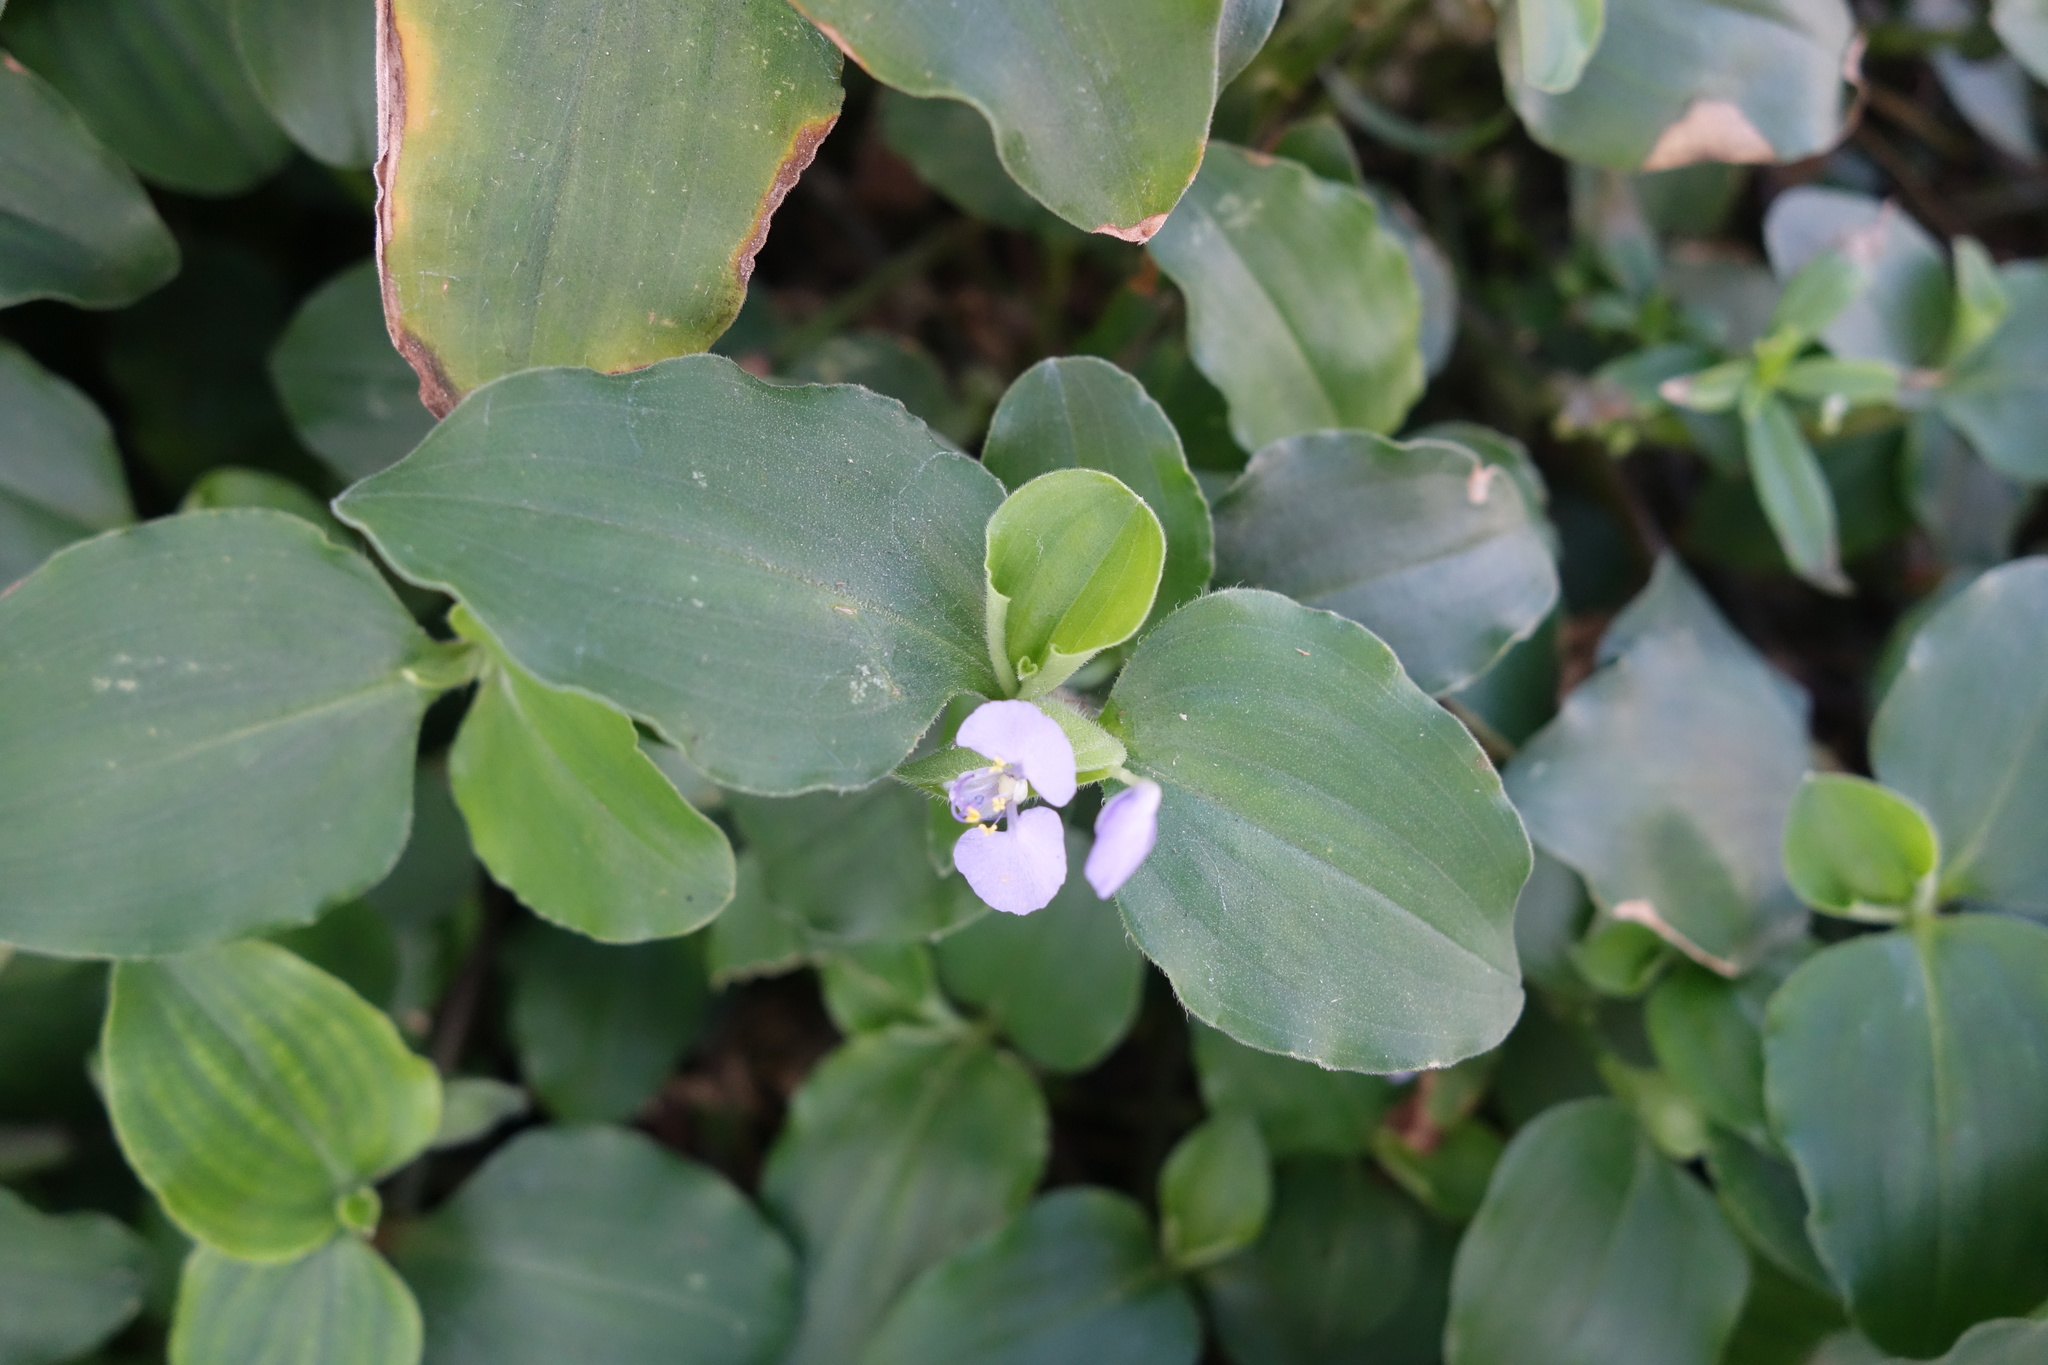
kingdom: Plantae
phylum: Tracheophyta
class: Liliopsida
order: Commelinales
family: Commelinaceae
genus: Commelina
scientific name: Commelina benghalensis
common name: Jio
